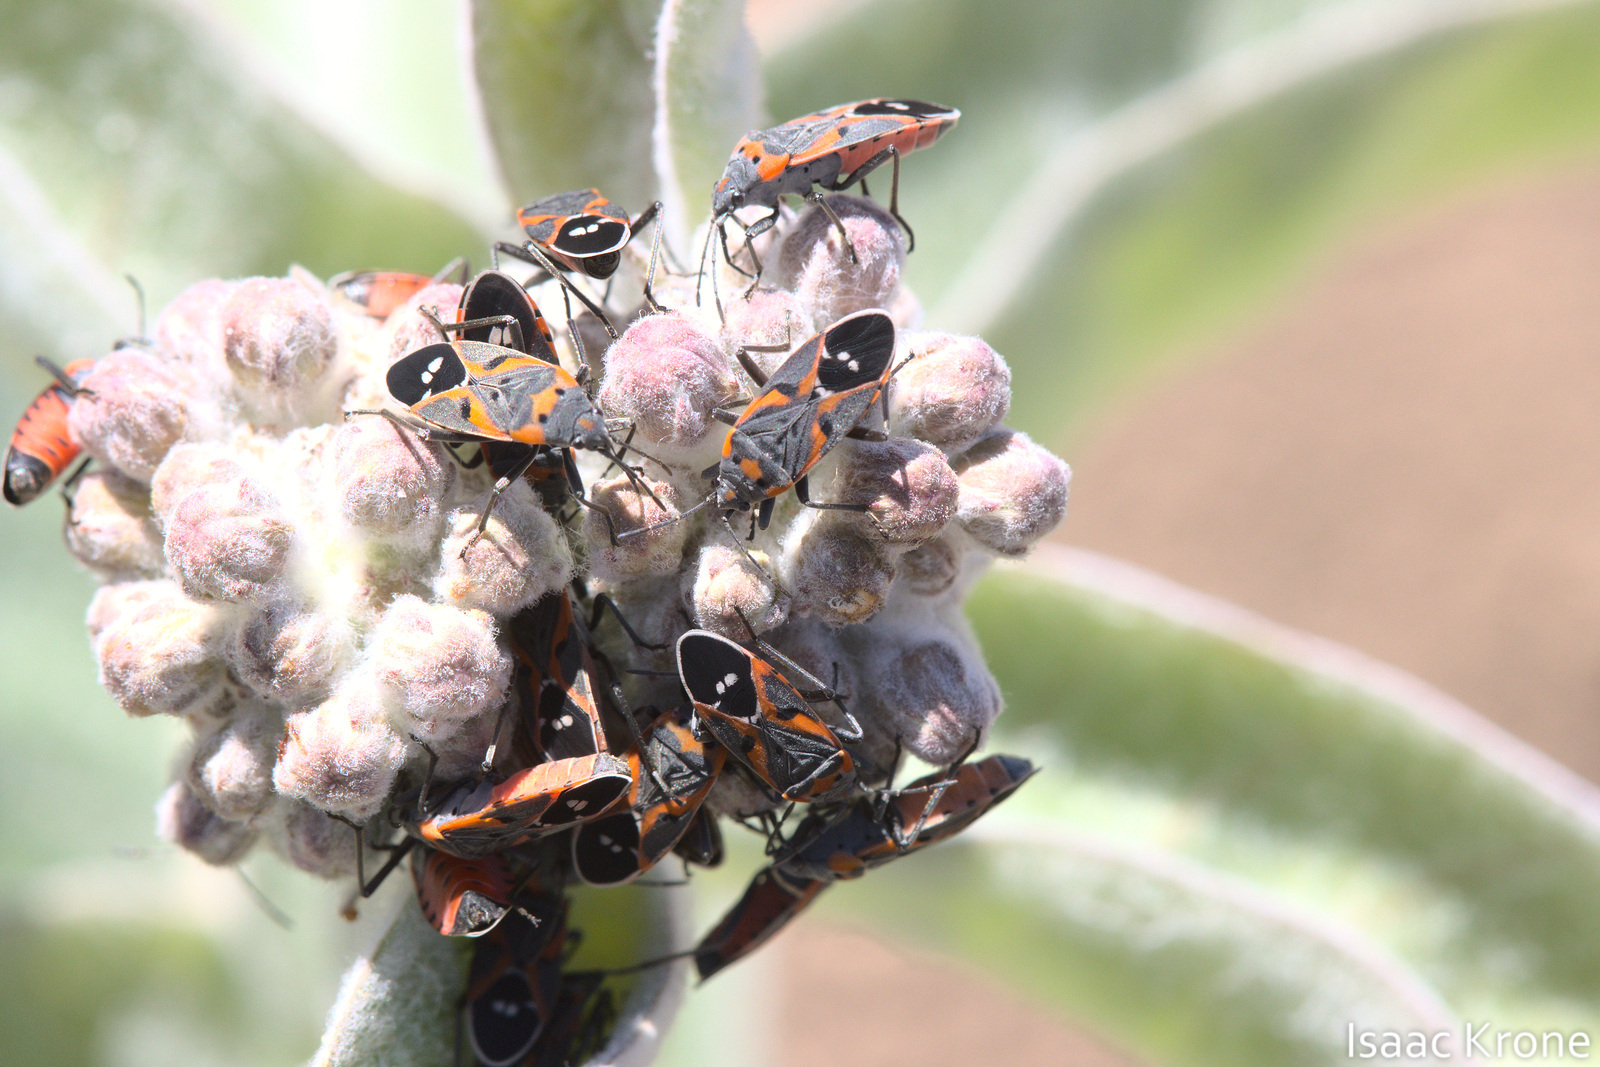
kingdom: Animalia
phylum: Arthropoda
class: Insecta
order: Hemiptera
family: Lygaeidae
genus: Lygaeus
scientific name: Lygaeus kalmii
